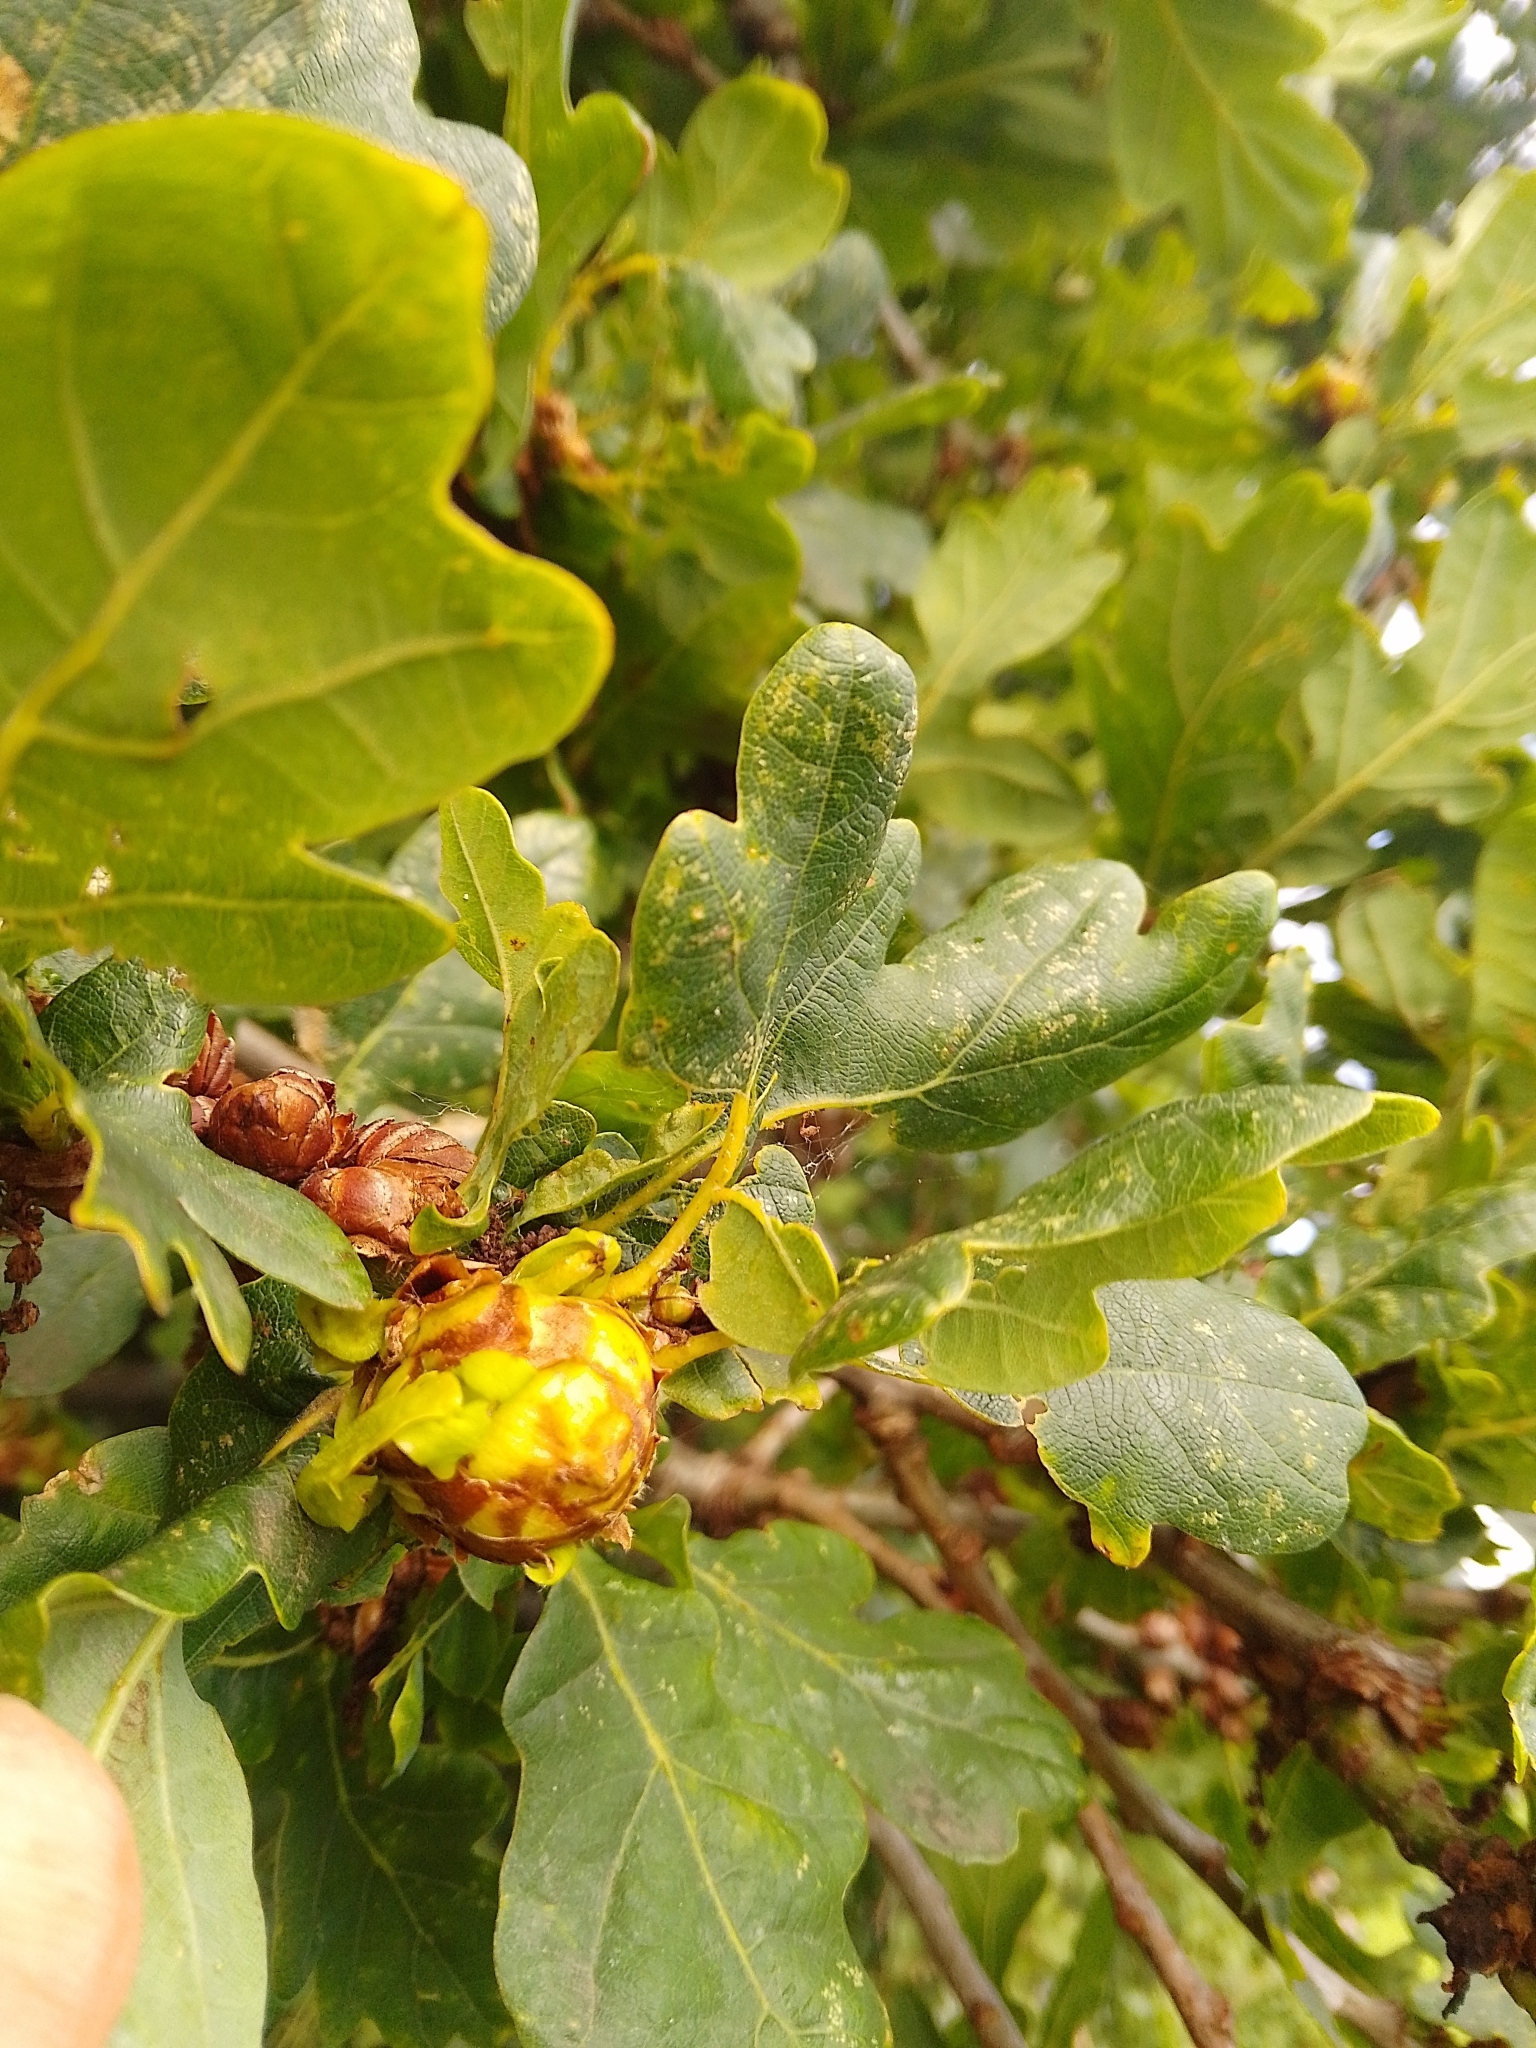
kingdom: Animalia
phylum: Arthropoda
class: Insecta
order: Hymenoptera
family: Cynipidae
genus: Andricus
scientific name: Andricus foecundatrix
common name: Artichoke gall
